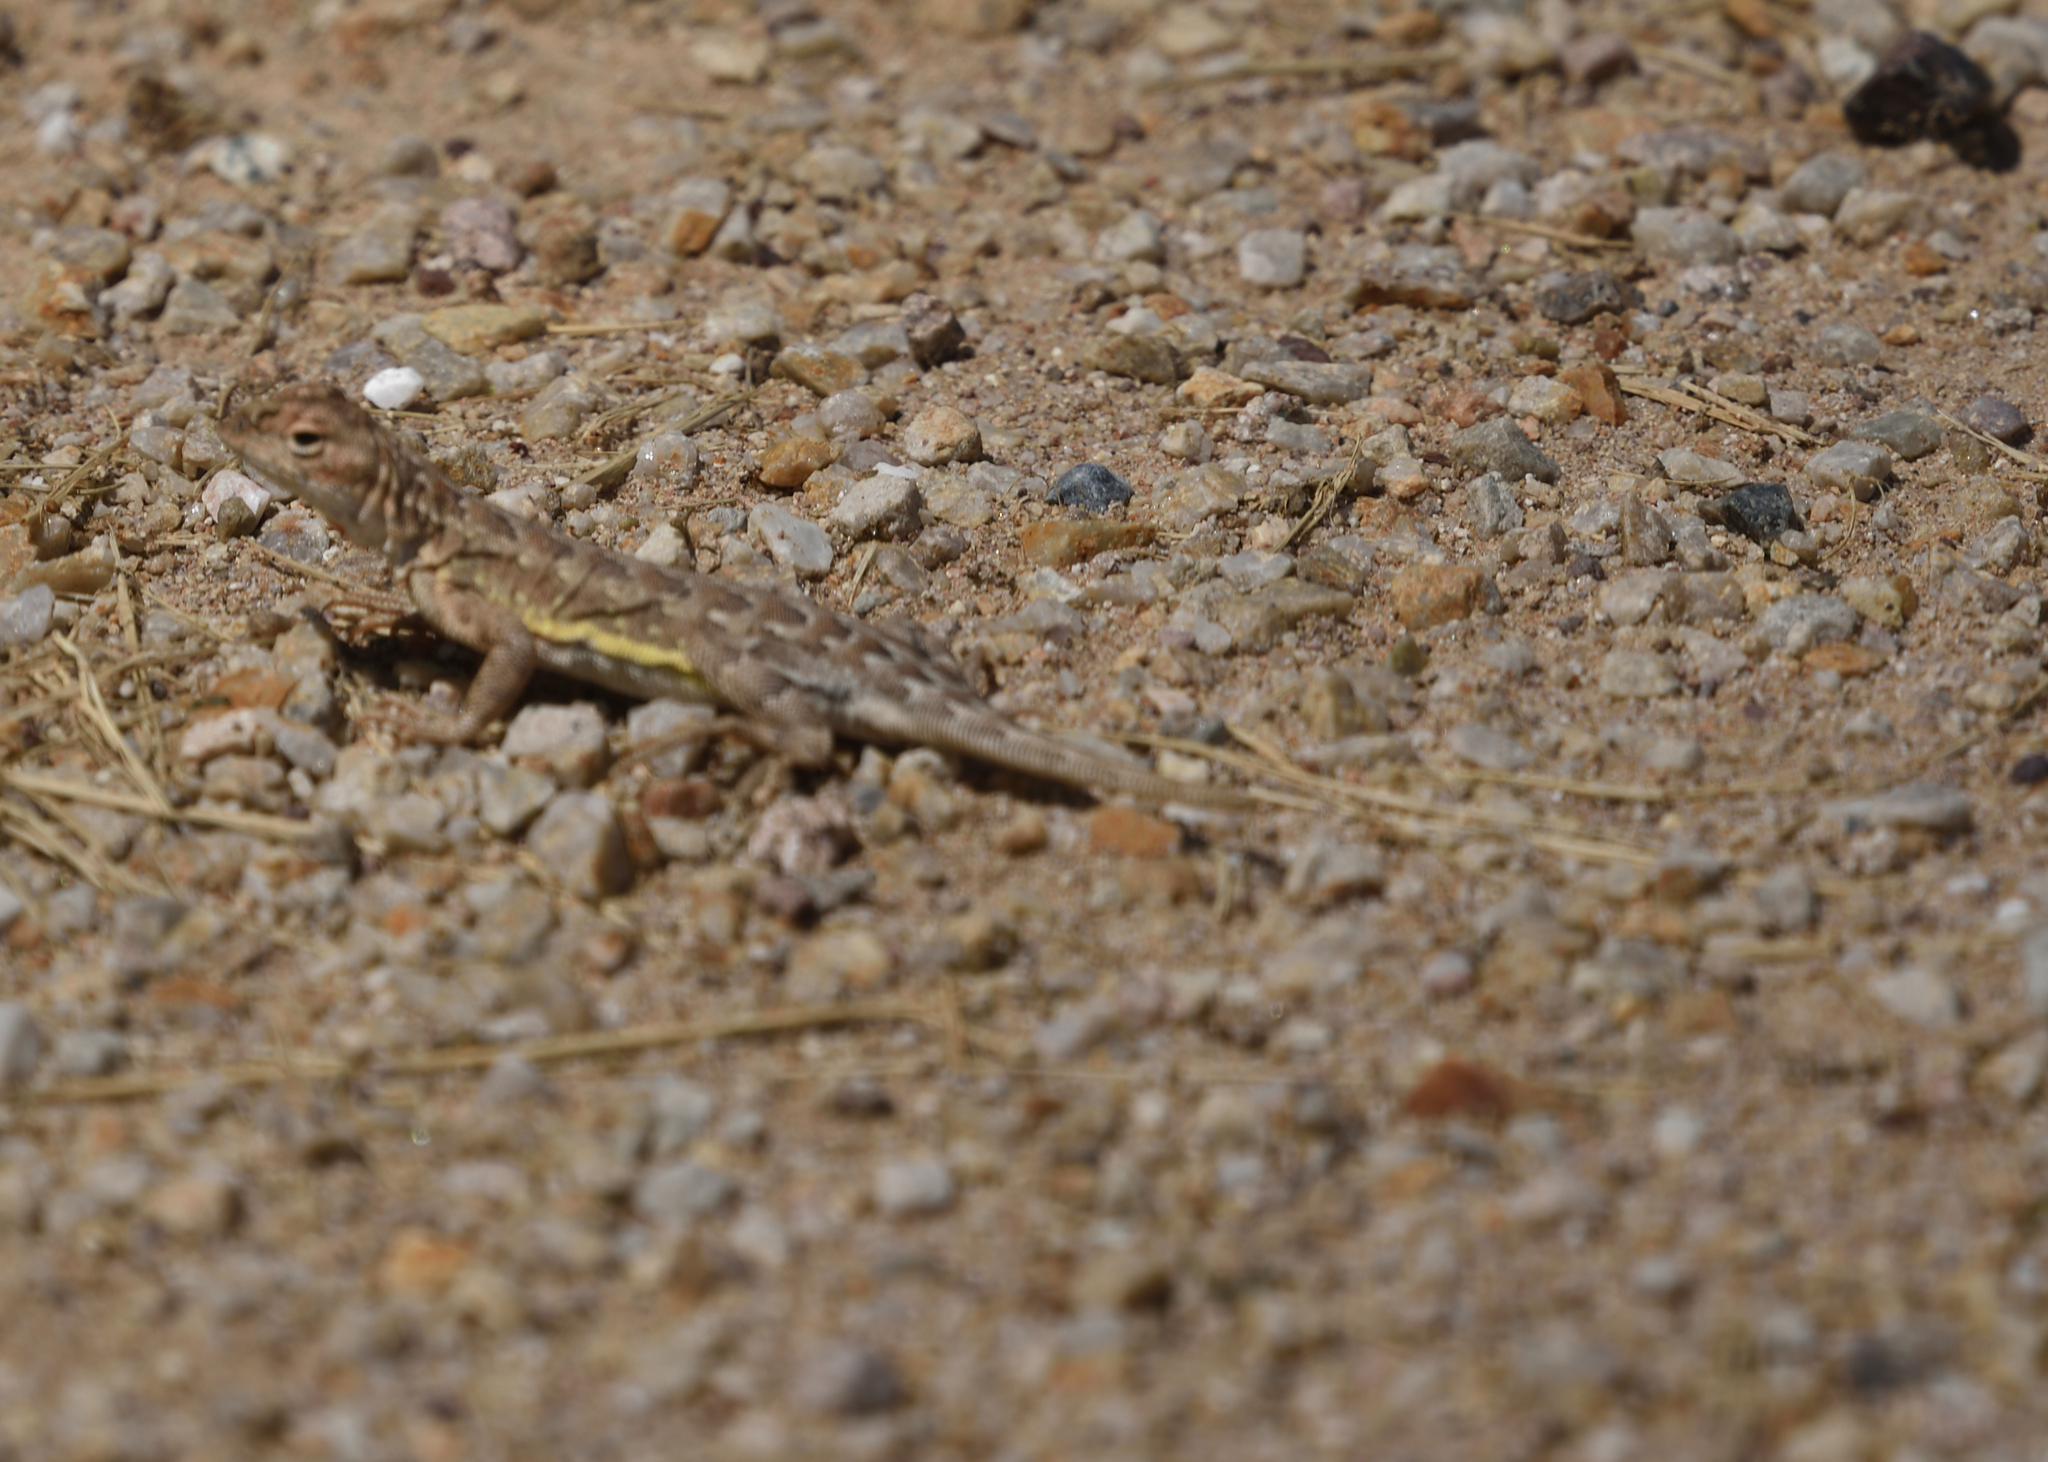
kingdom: Animalia
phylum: Chordata
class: Squamata
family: Phrynosomatidae
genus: Holbrookia
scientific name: Holbrookia elegans
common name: Elegant earless lizard
